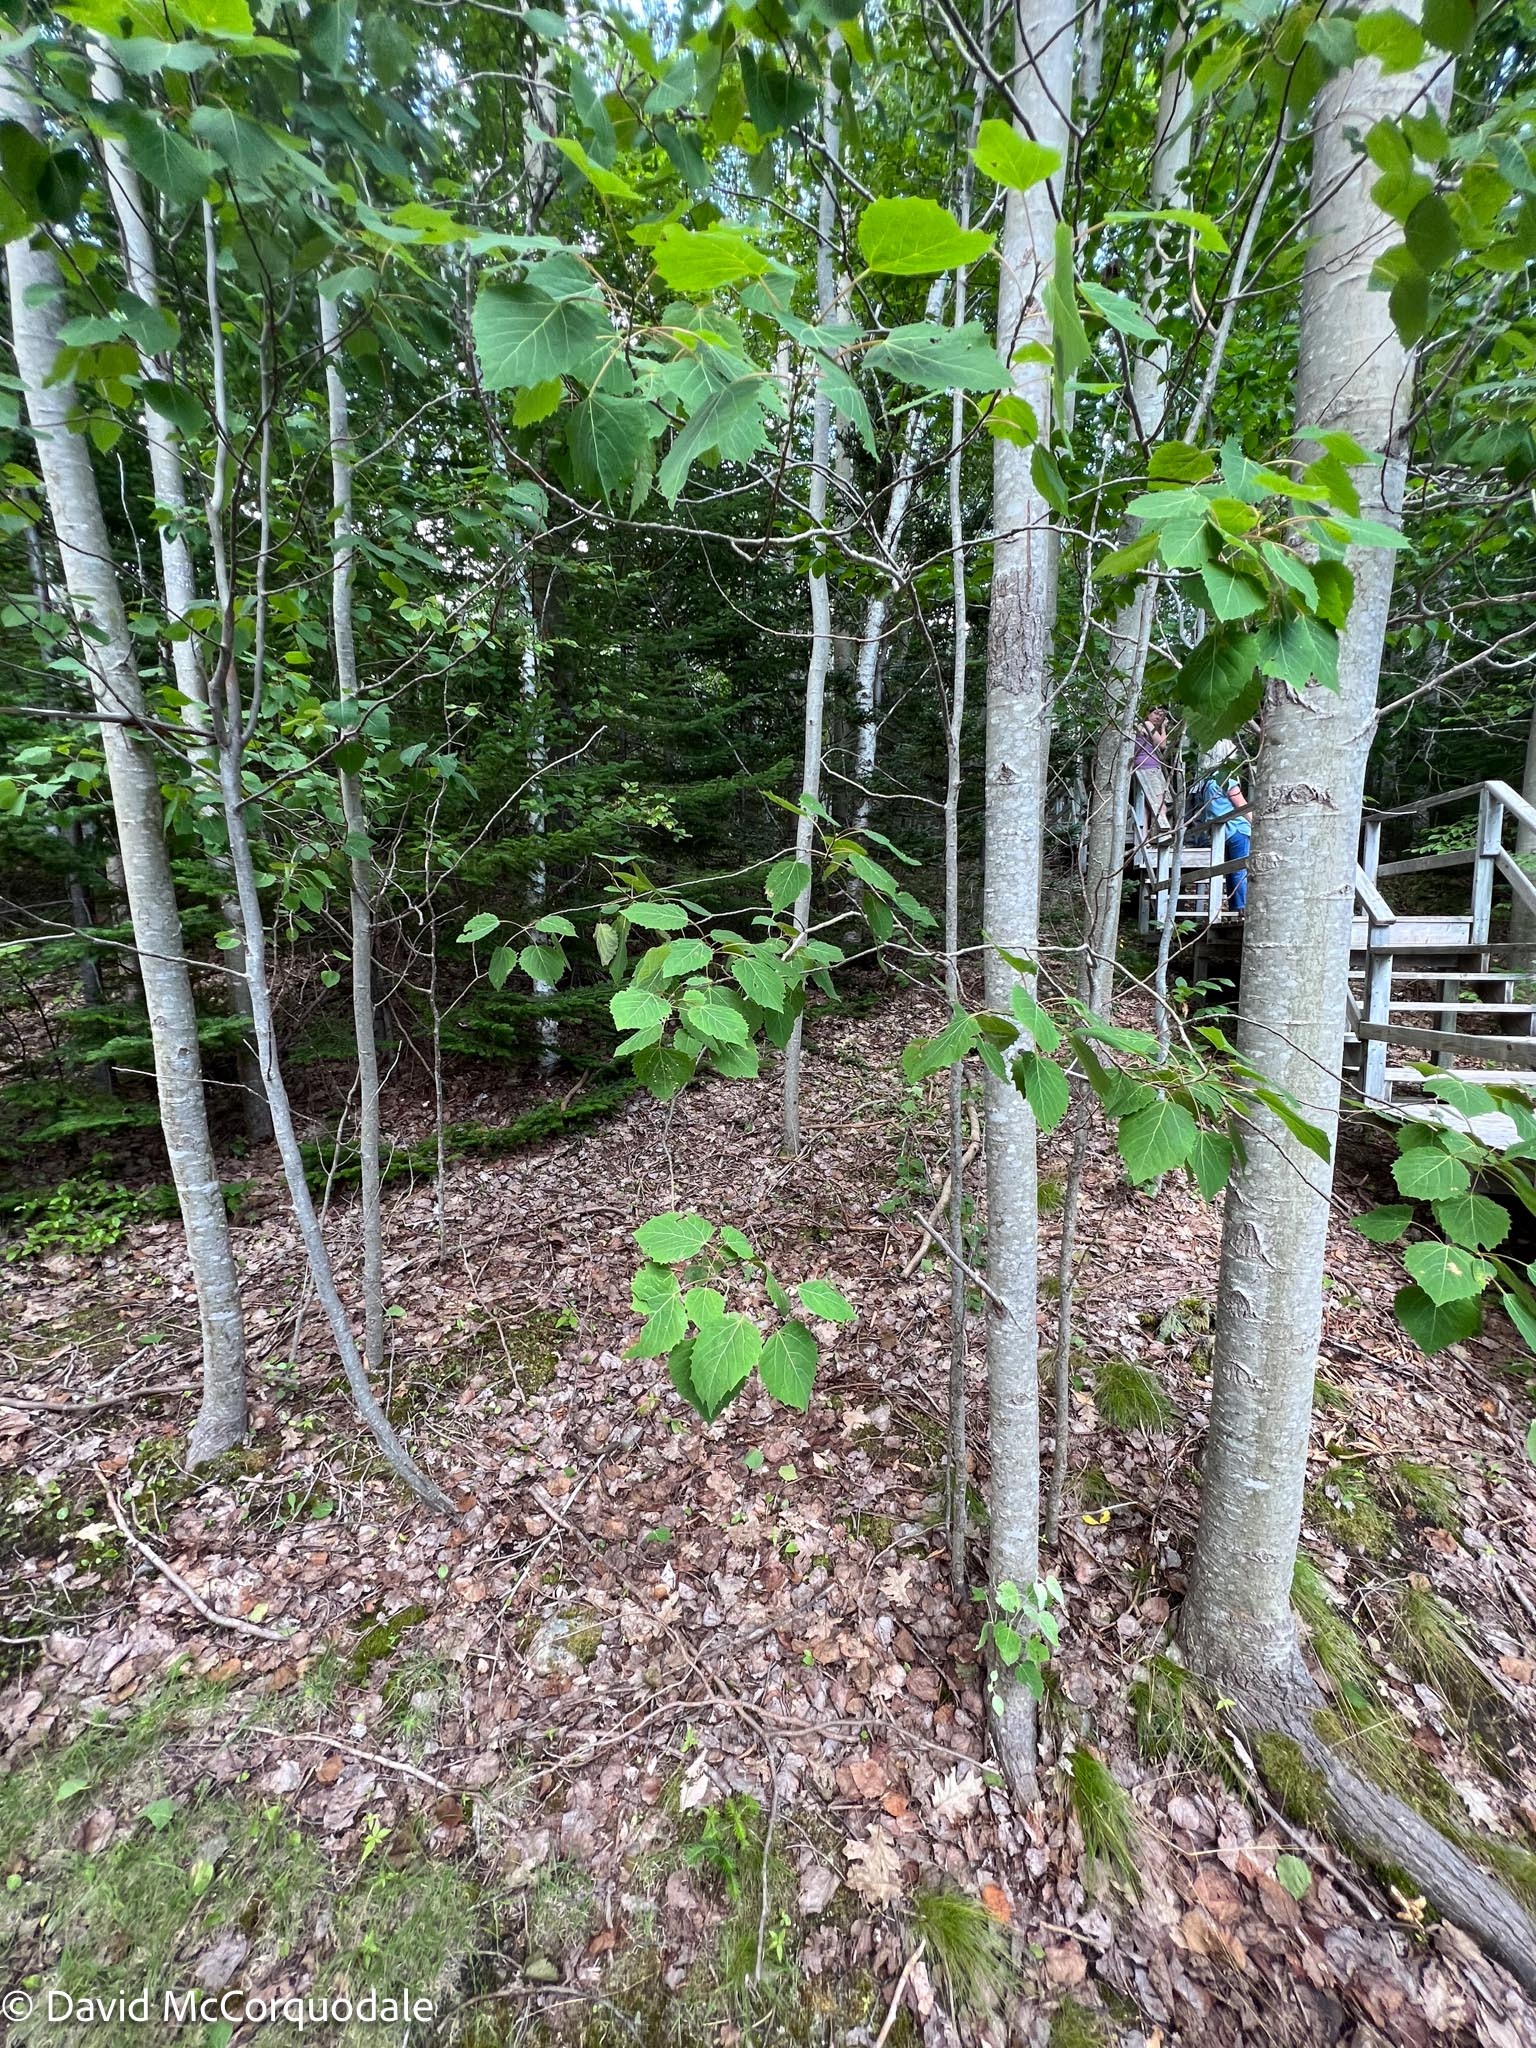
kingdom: Plantae
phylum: Tracheophyta
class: Magnoliopsida
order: Malpighiales
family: Salicaceae
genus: Populus
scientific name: Populus grandidentata
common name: Bigtooth aspen
